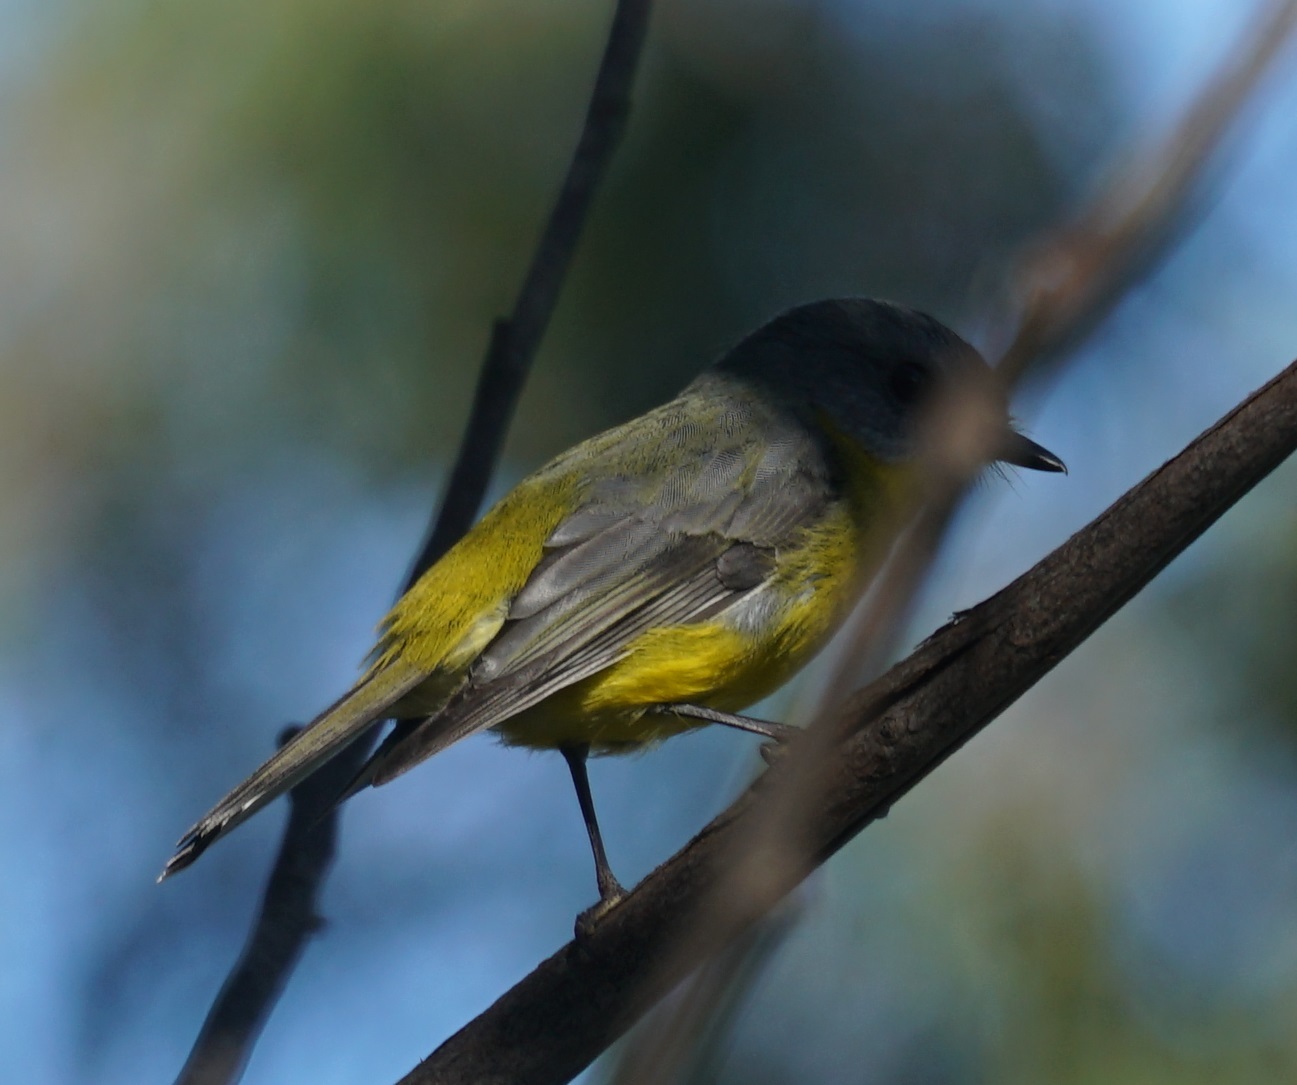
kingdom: Animalia
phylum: Chordata
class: Aves
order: Passeriformes
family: Petroicidae
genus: Eopsaltria
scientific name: Eopsaltria australis
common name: Eastern yellow robin
